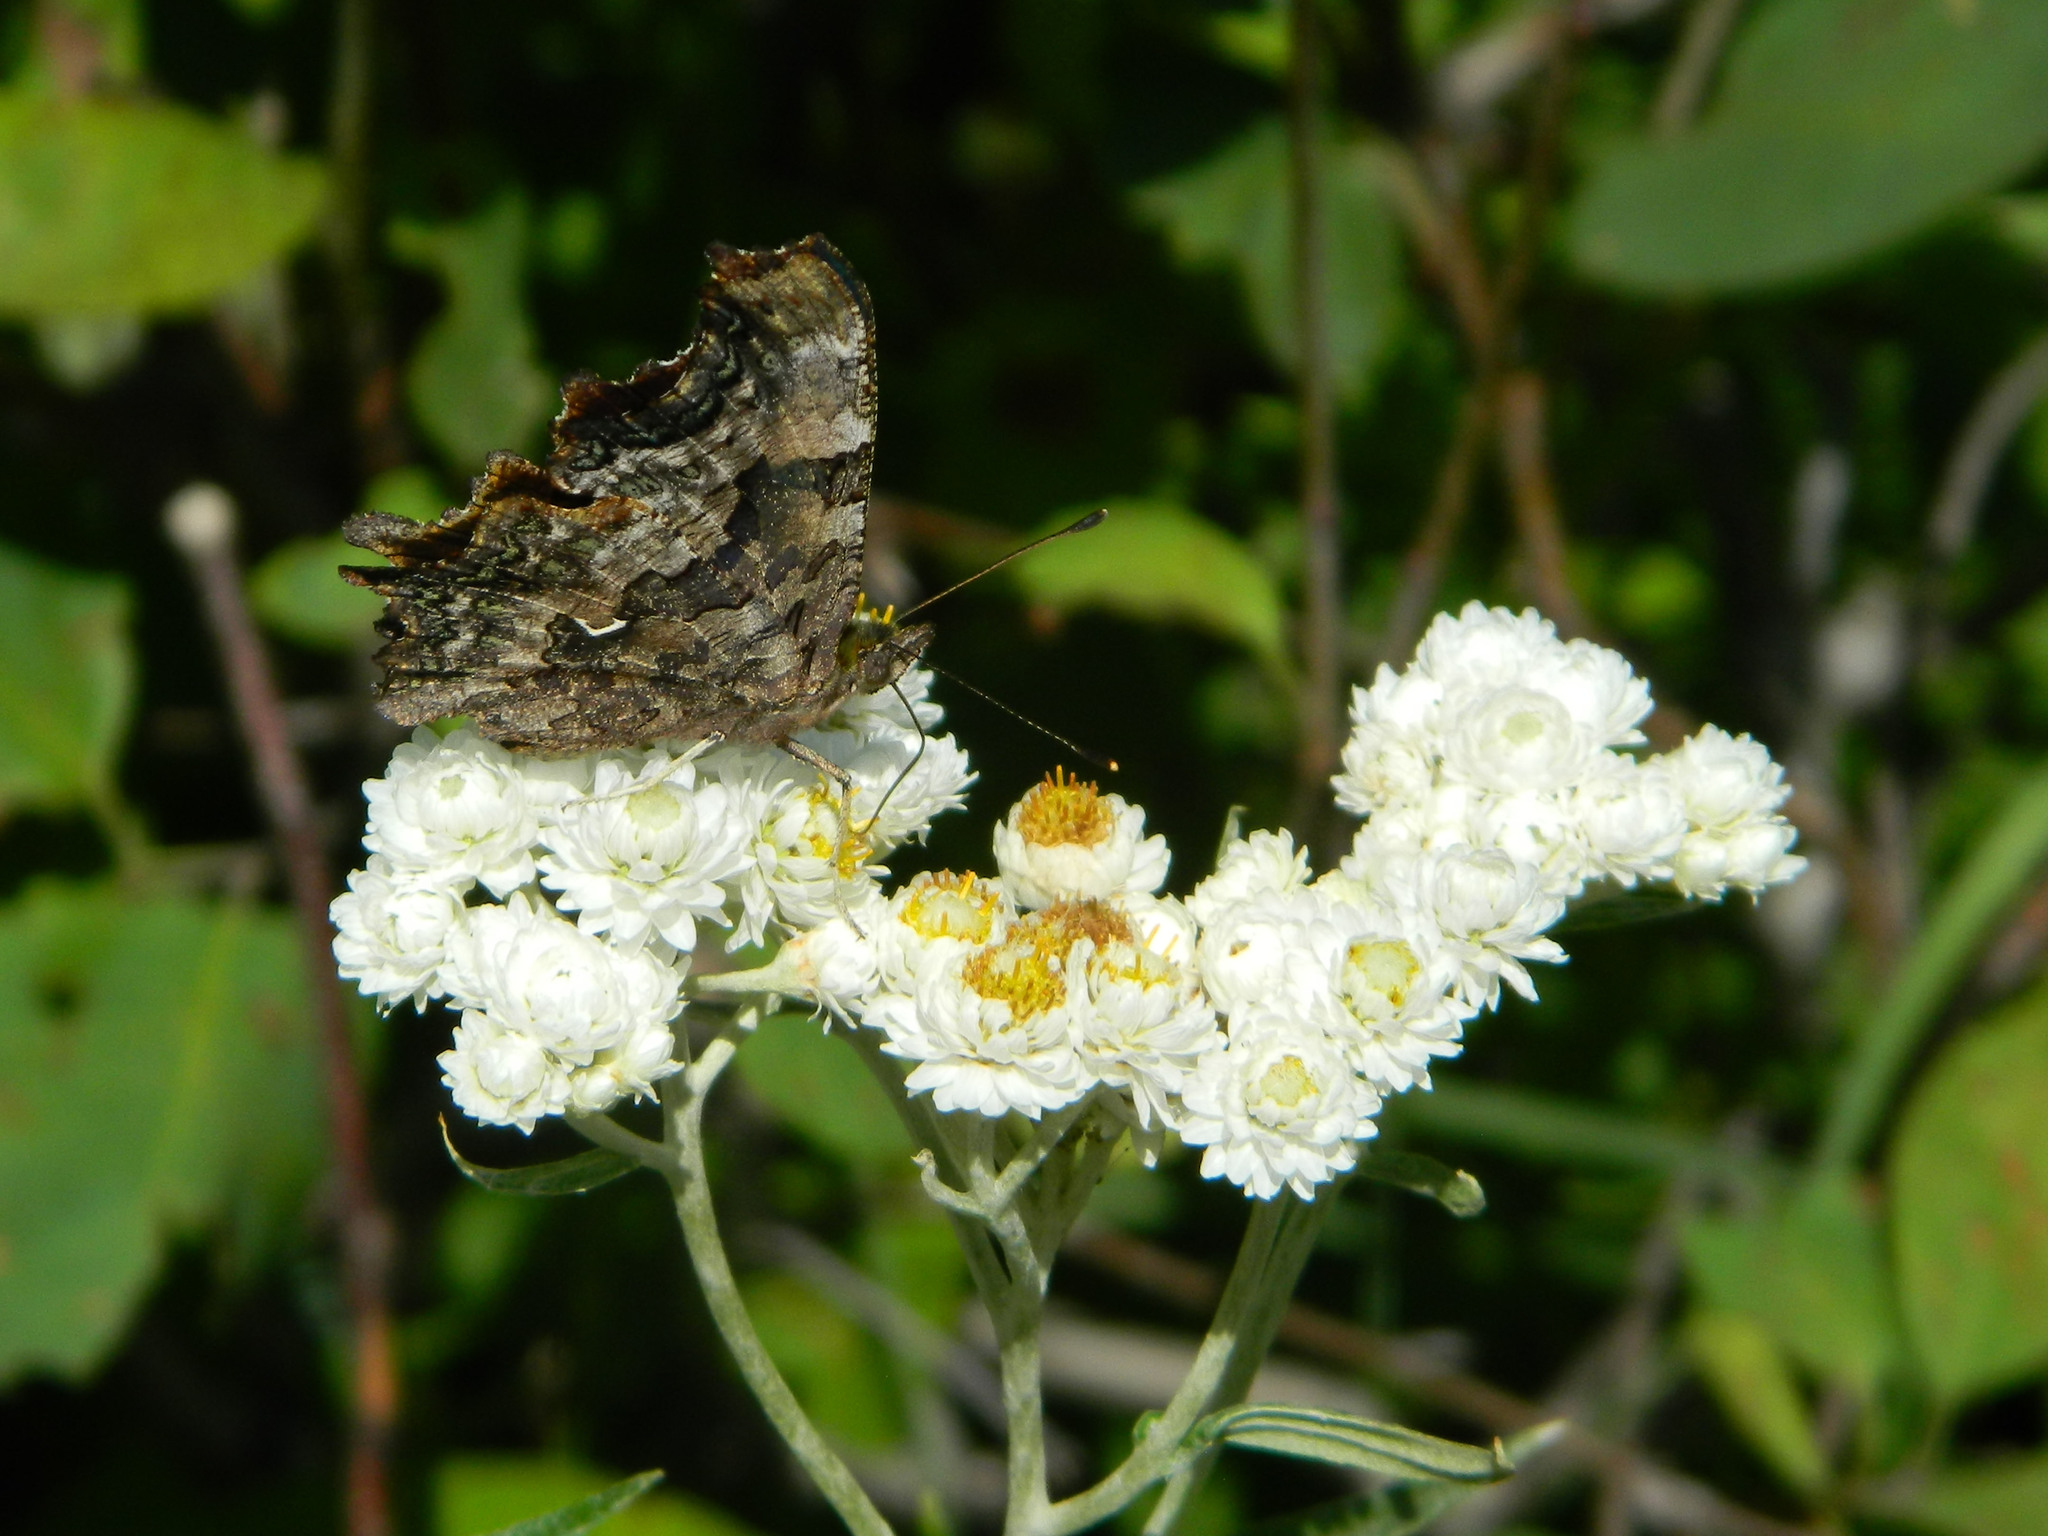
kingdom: Animalia
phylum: Arthropoda
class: Insecta
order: Lepidoptera
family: Nymphalidae
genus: Polygonia
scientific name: Polygonia faunus
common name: Green comma
